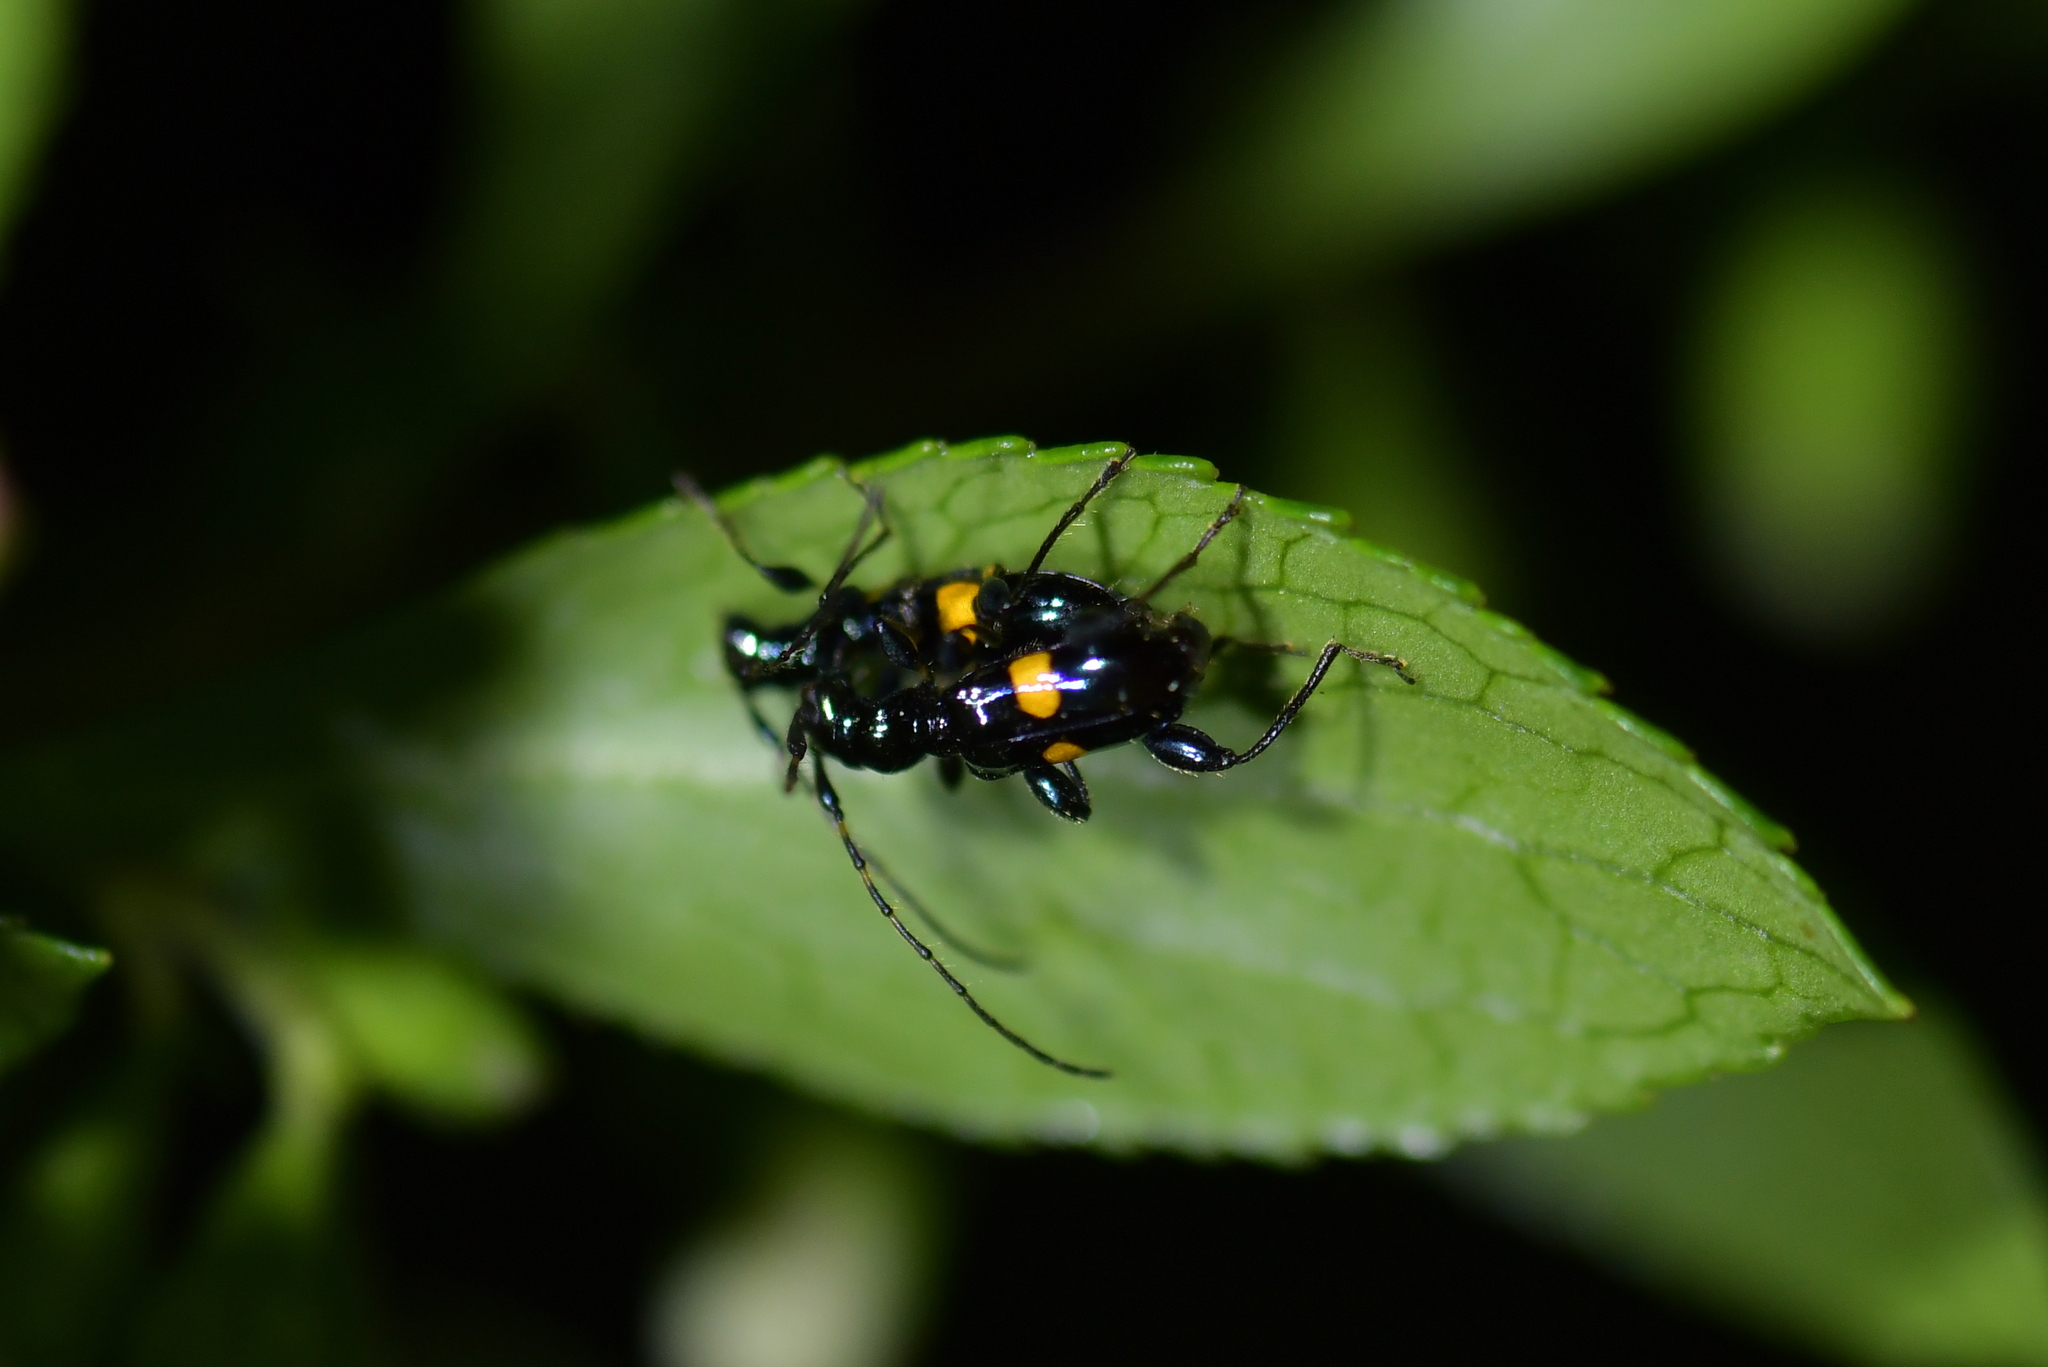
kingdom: Animalia
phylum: Arthropoda
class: Insecta
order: Coleoptera
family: Cerambycidae
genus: Zorion
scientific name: Zorion guttigerum
